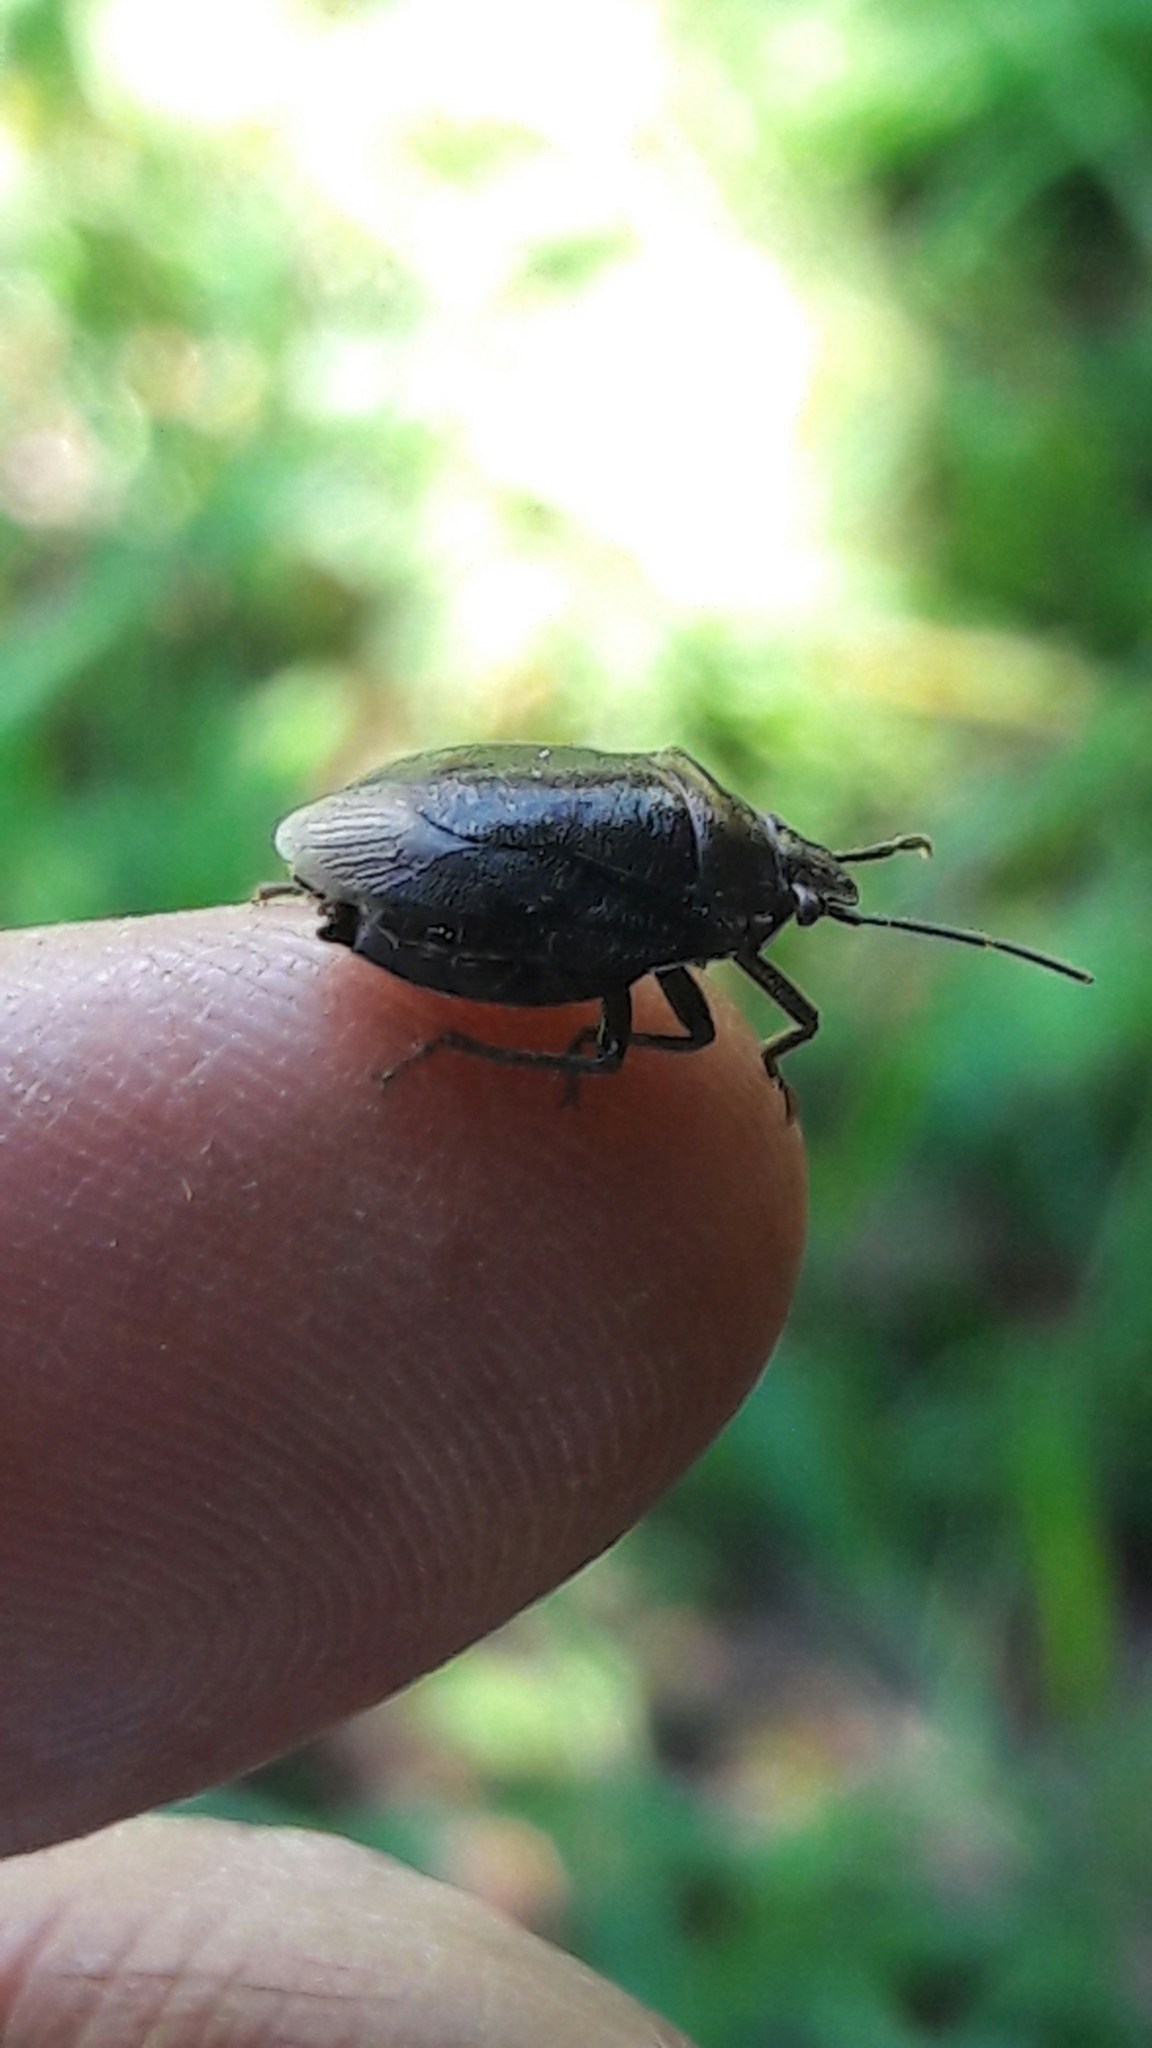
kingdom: Animalia
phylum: Arthropoda
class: Insecta
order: Hemiptera
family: Pentatomidae
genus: Antiteuchus
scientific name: Antiteuchus tripterus
